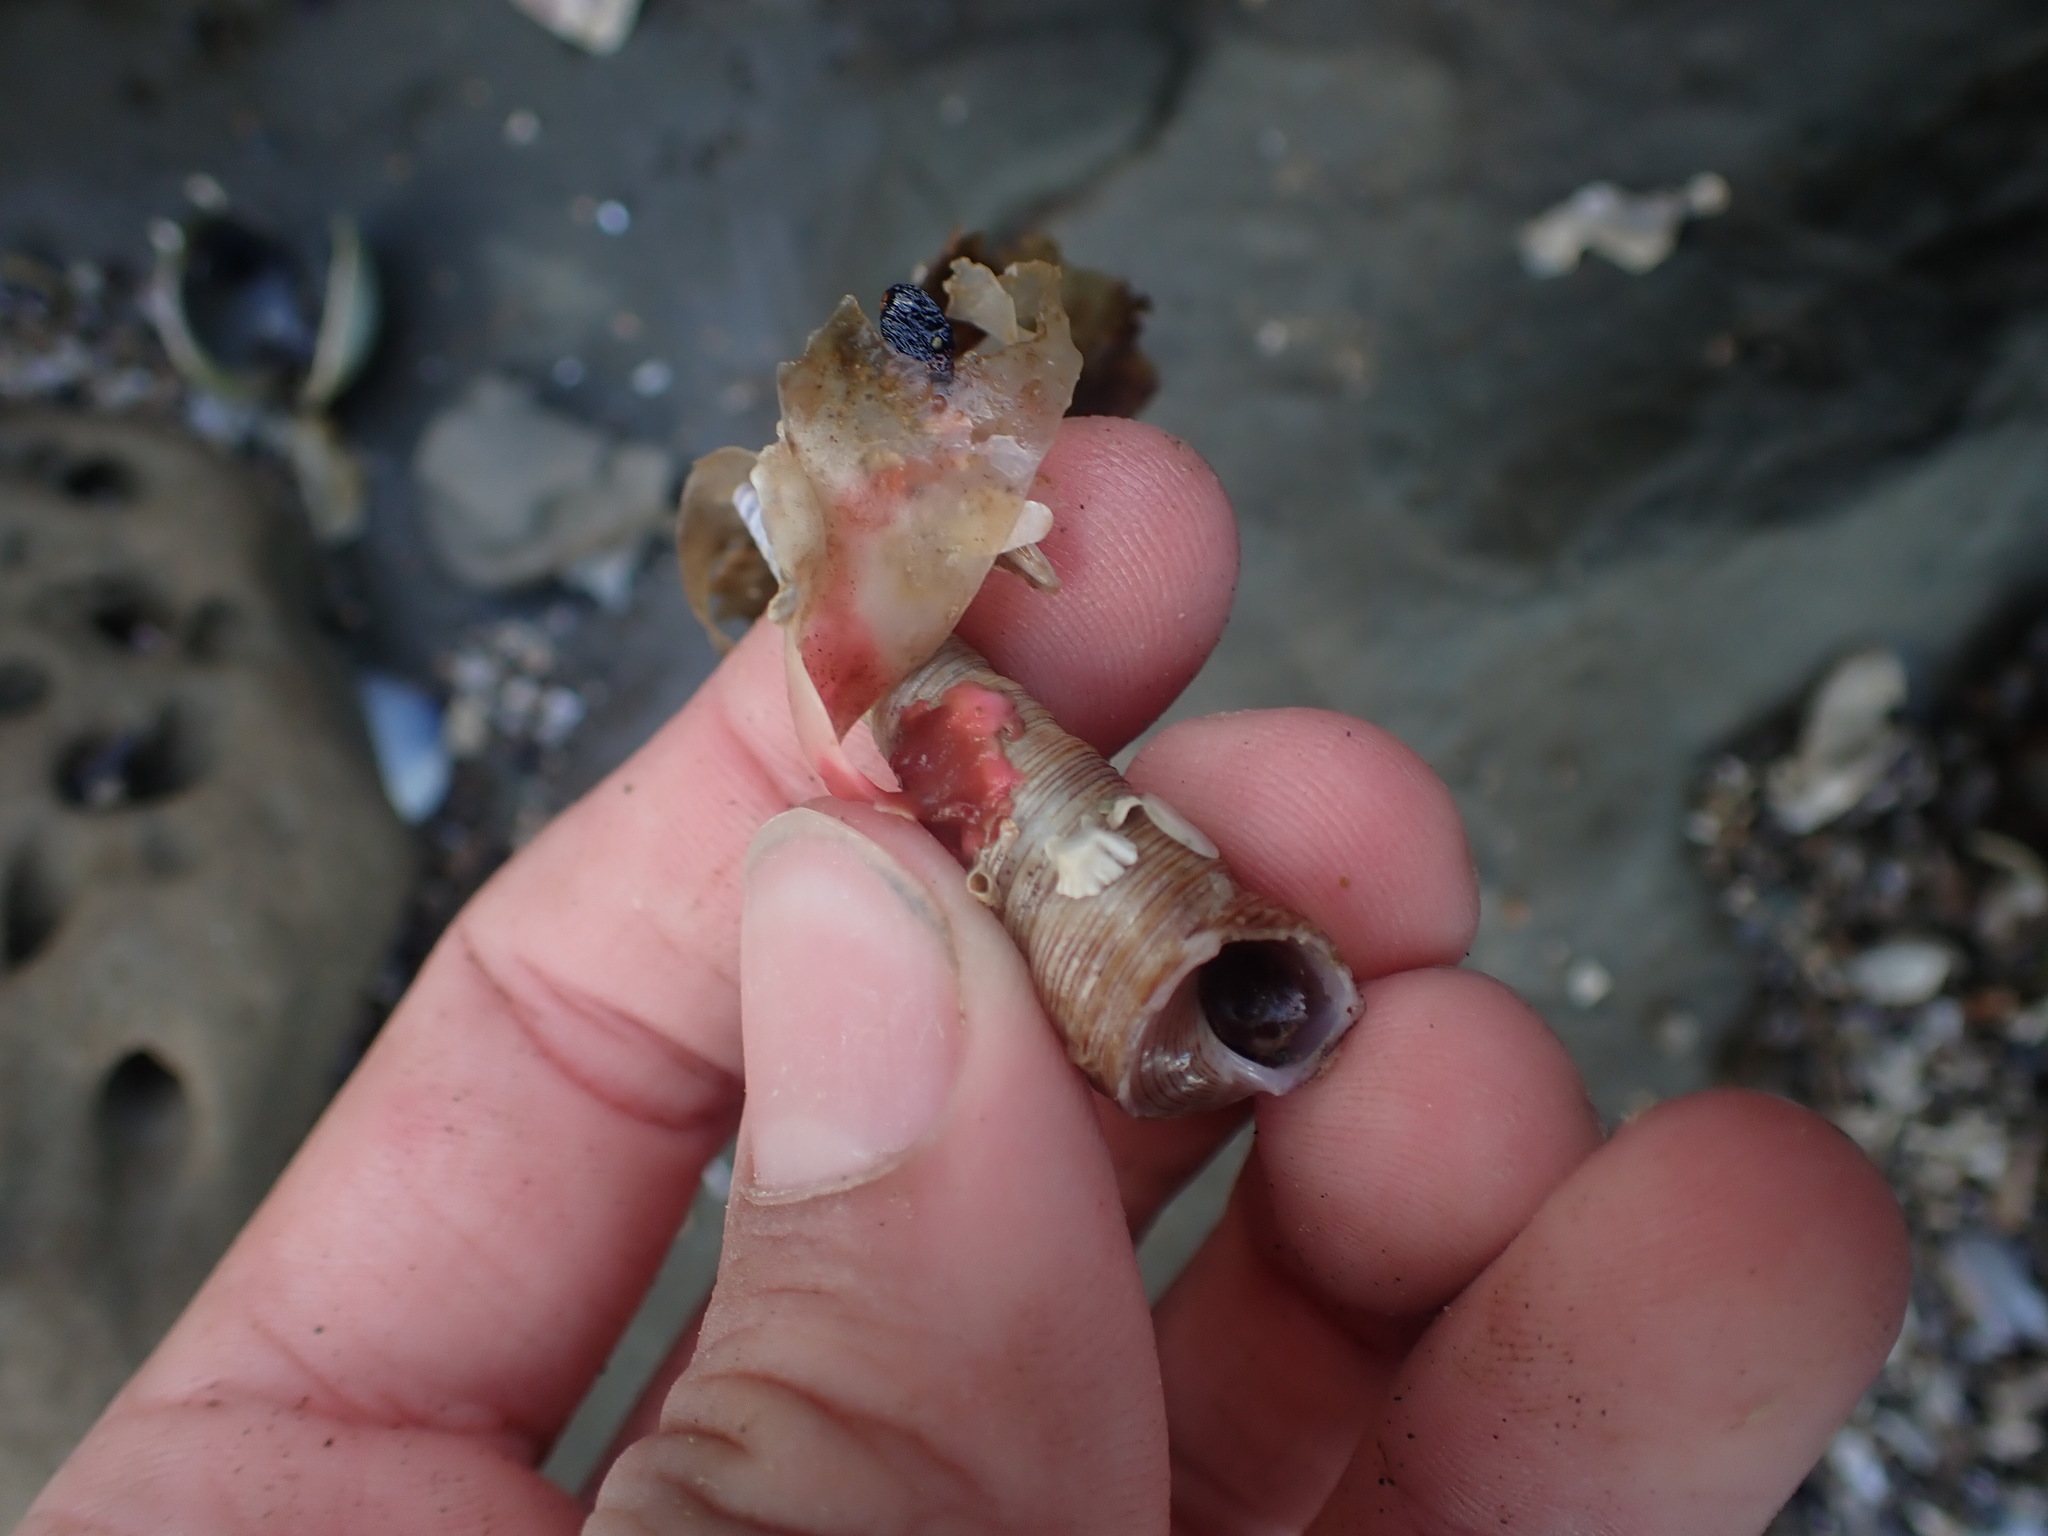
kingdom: Animalia
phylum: Mollusca
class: Gastropoda
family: Turritellidae
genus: Maoricolpus
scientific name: Maoricolpus roseus
